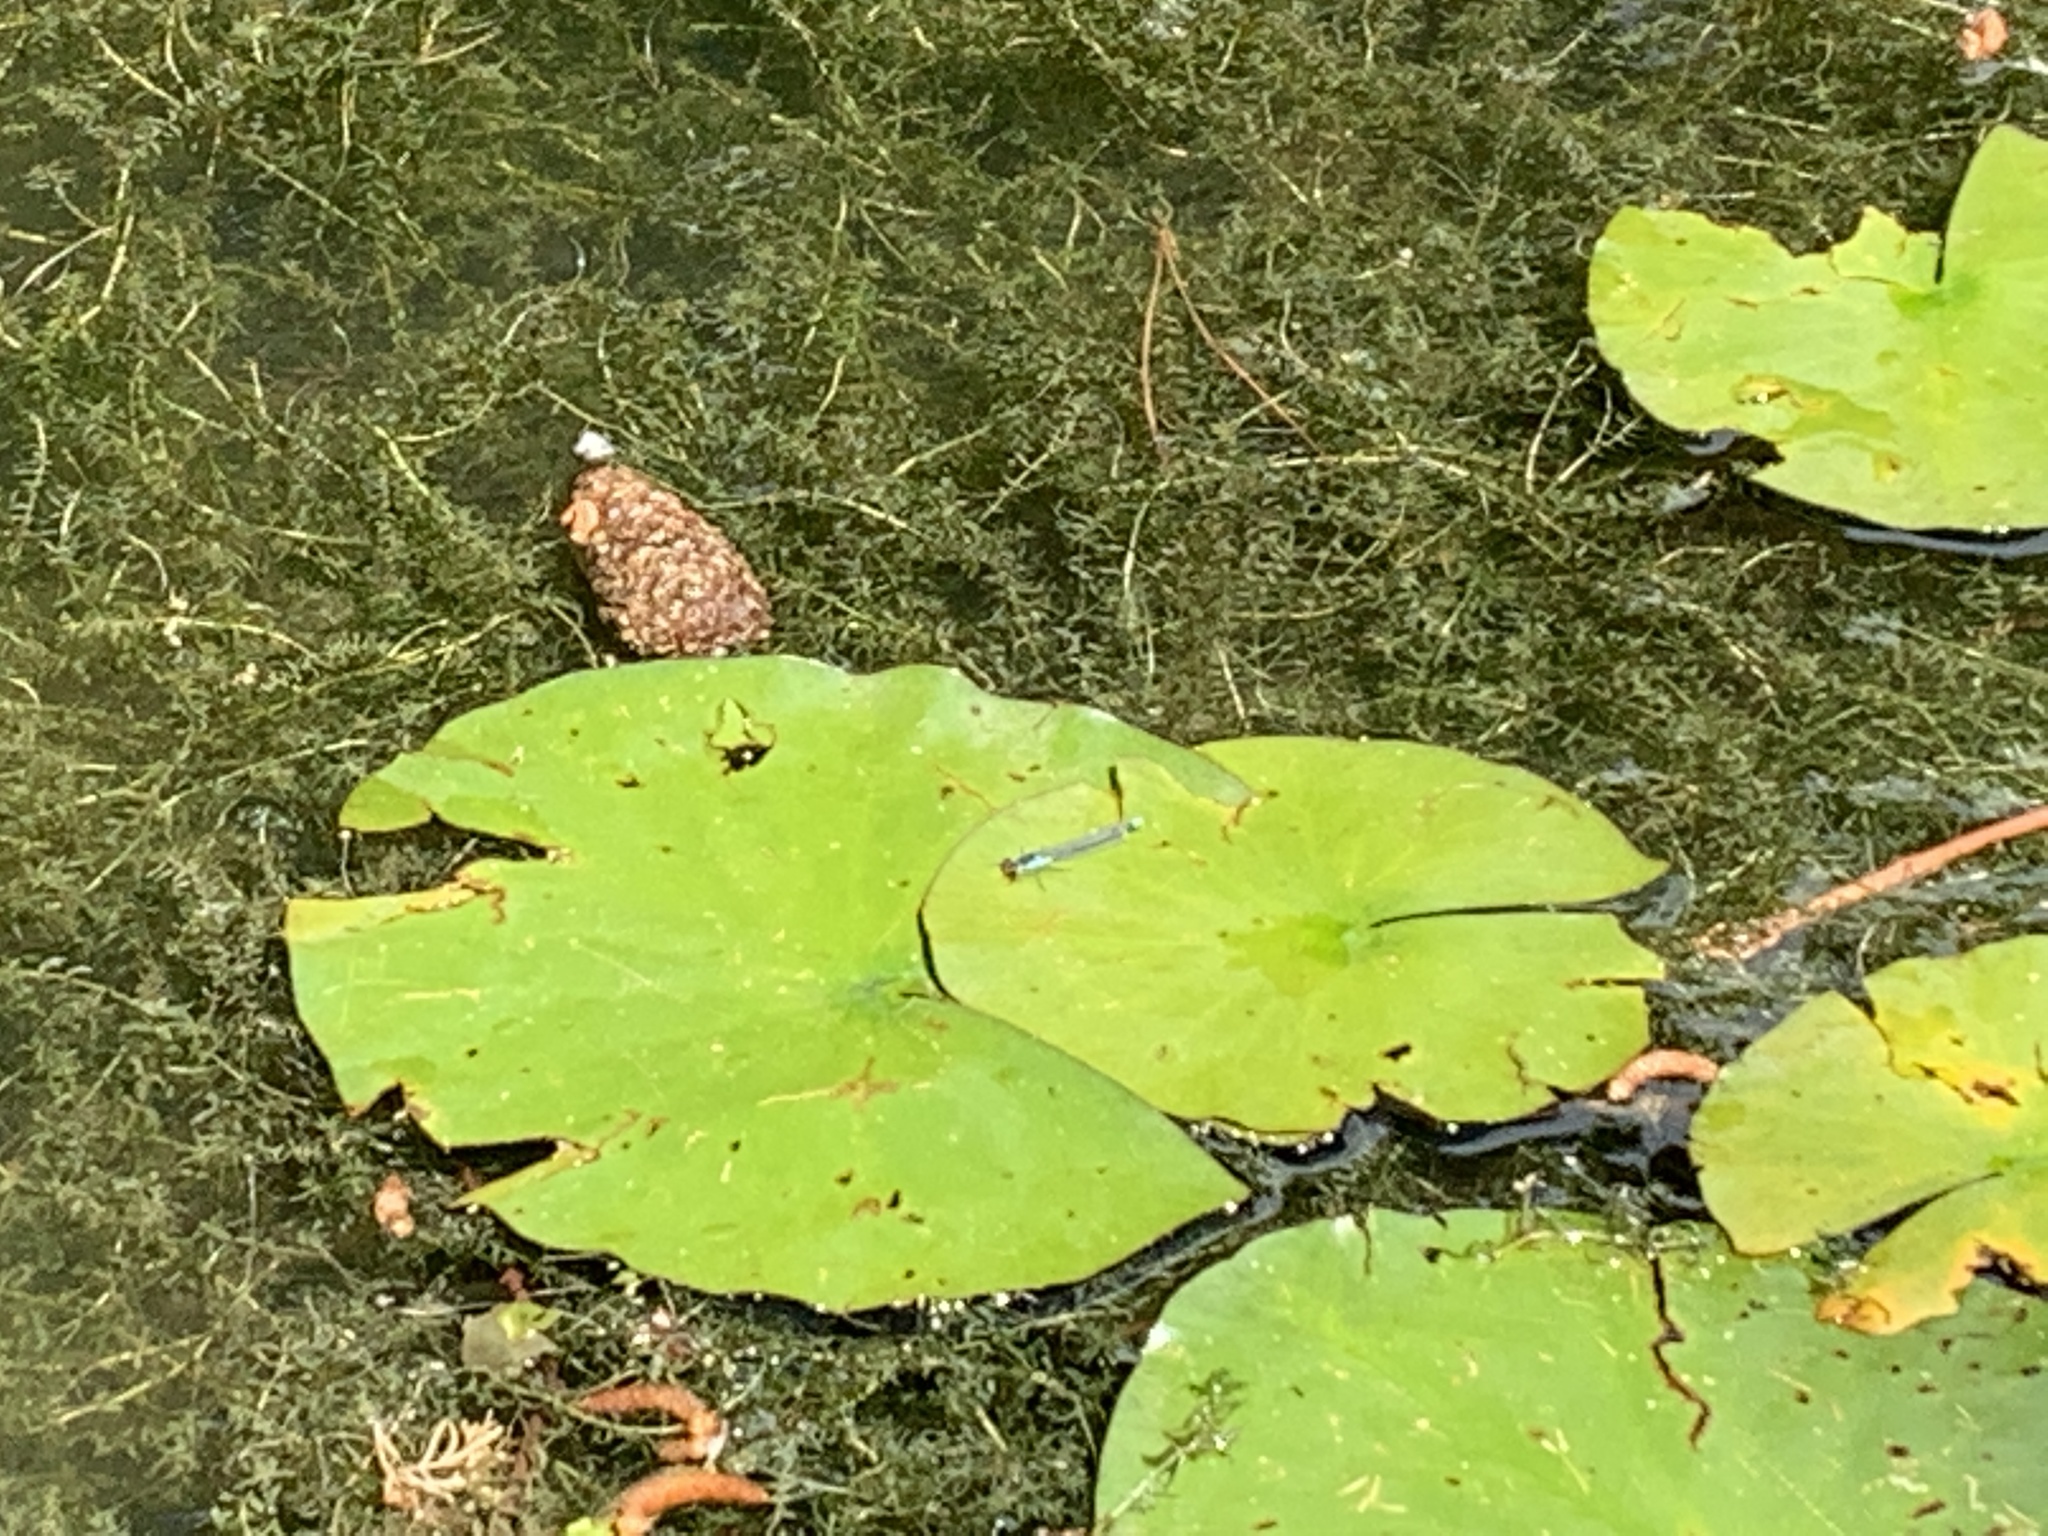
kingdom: Animalia
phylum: Arthropoda
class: Insecta
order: Odonata
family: Coenagrionidae
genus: Erythromma
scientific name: Erythromma najas
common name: Red-eyed damselfly
